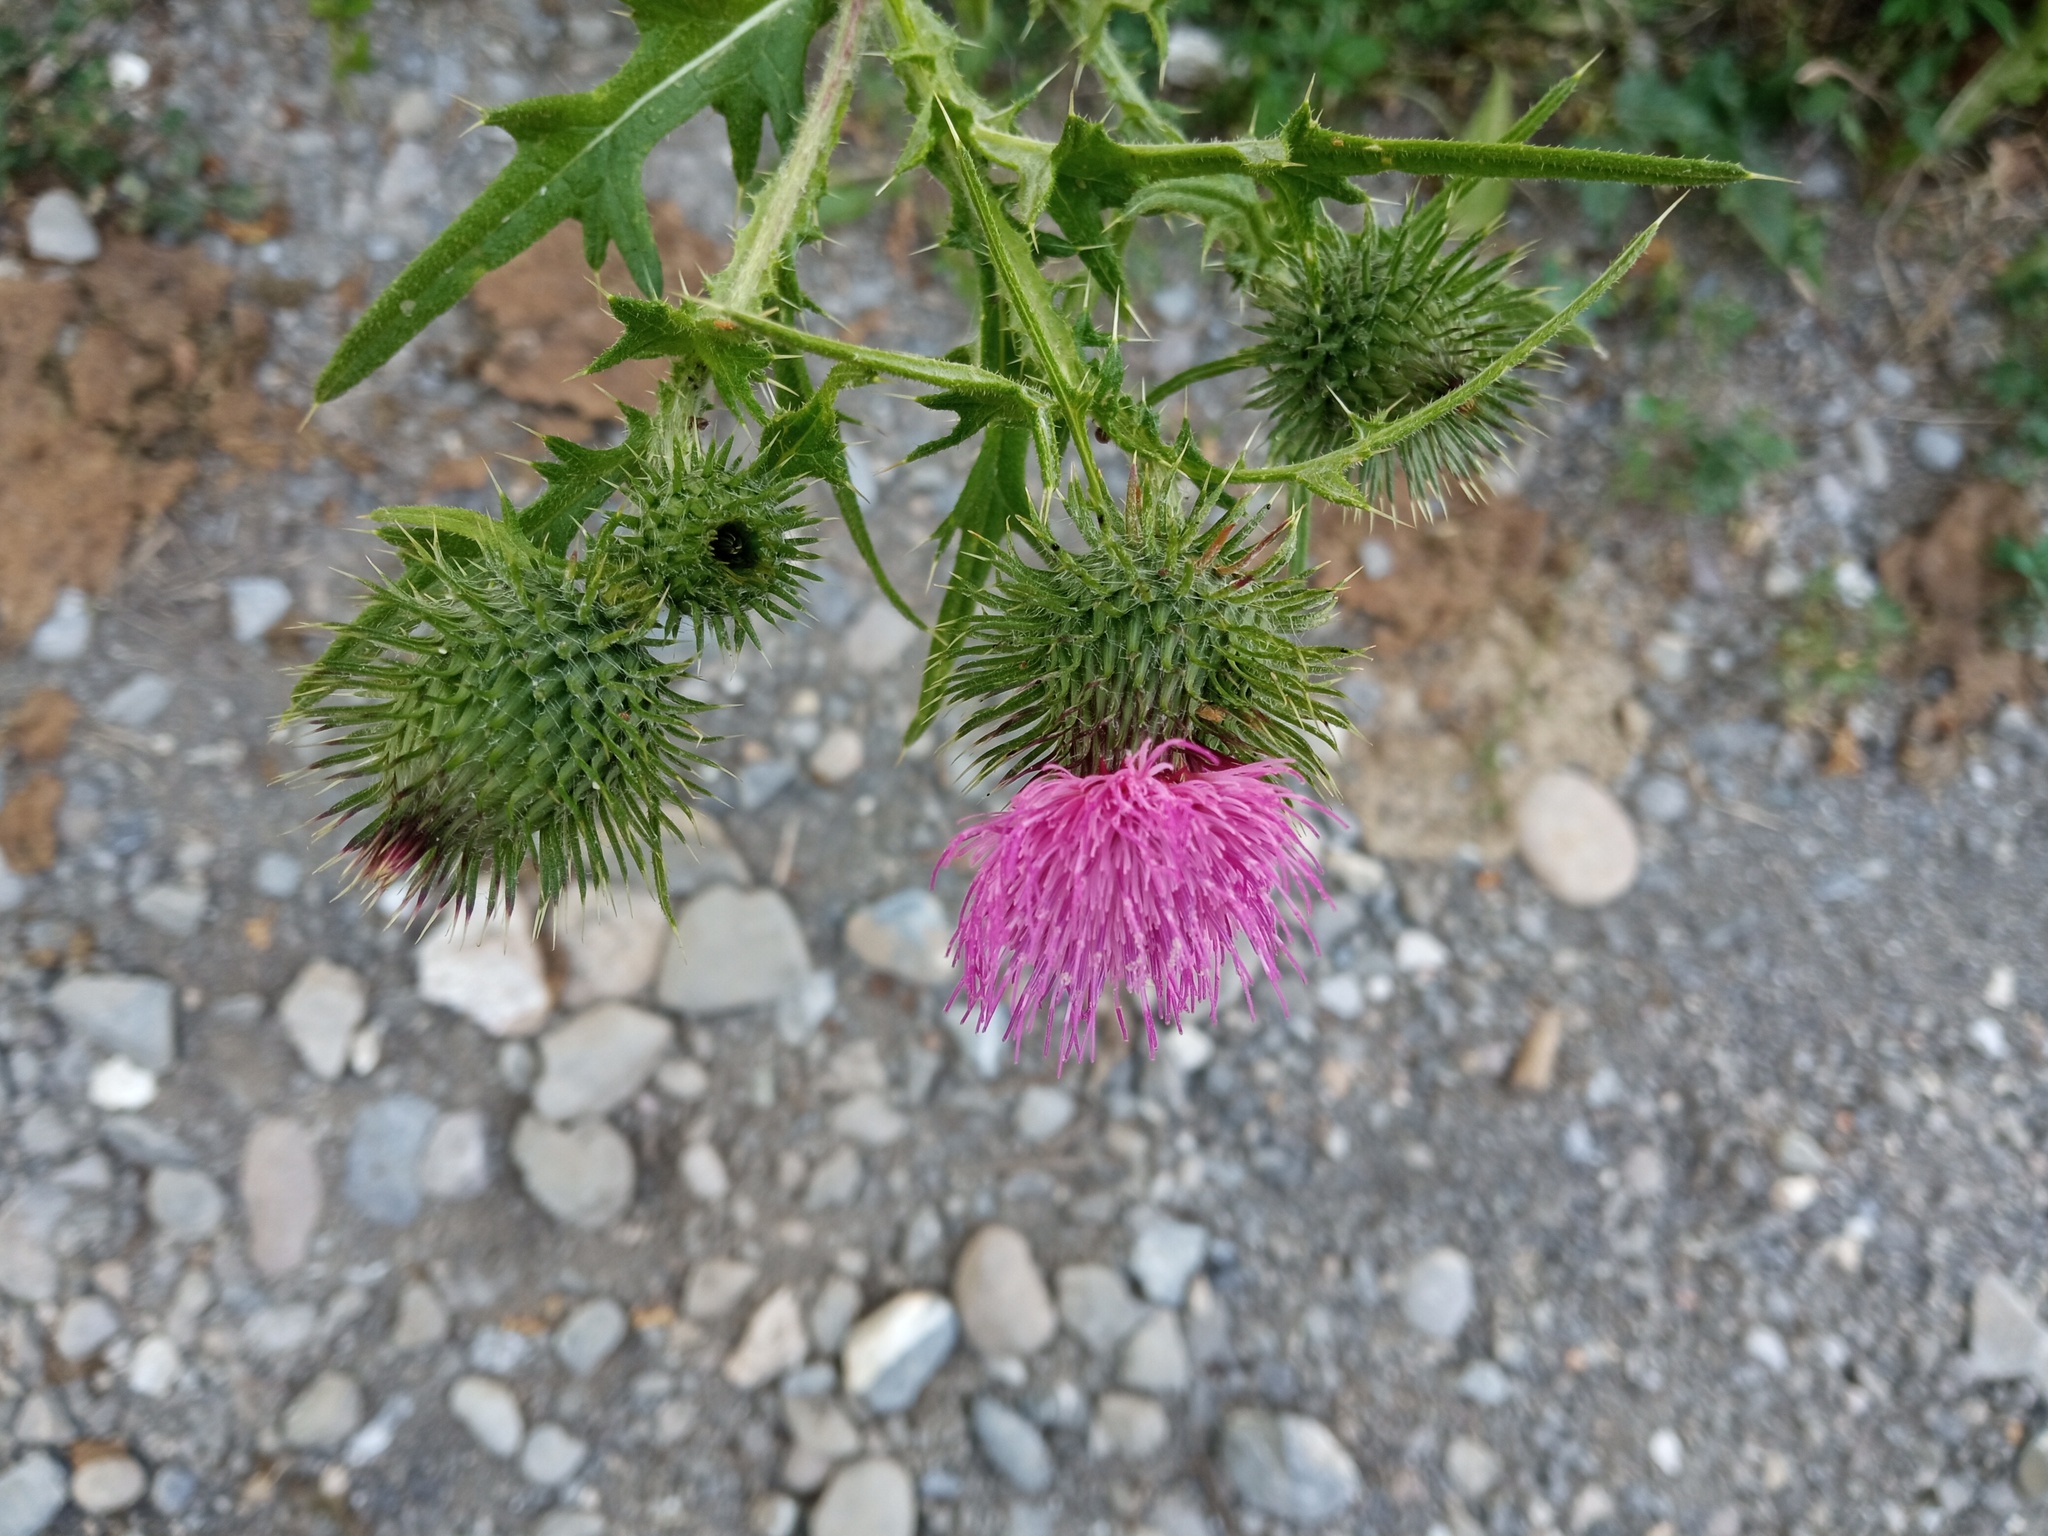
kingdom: Plantae
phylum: Tracheophyta
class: Magnoliopsida
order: Asterales
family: Asteraceae
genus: Cirsium
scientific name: Cirsium vulgare
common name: Bull thistle
